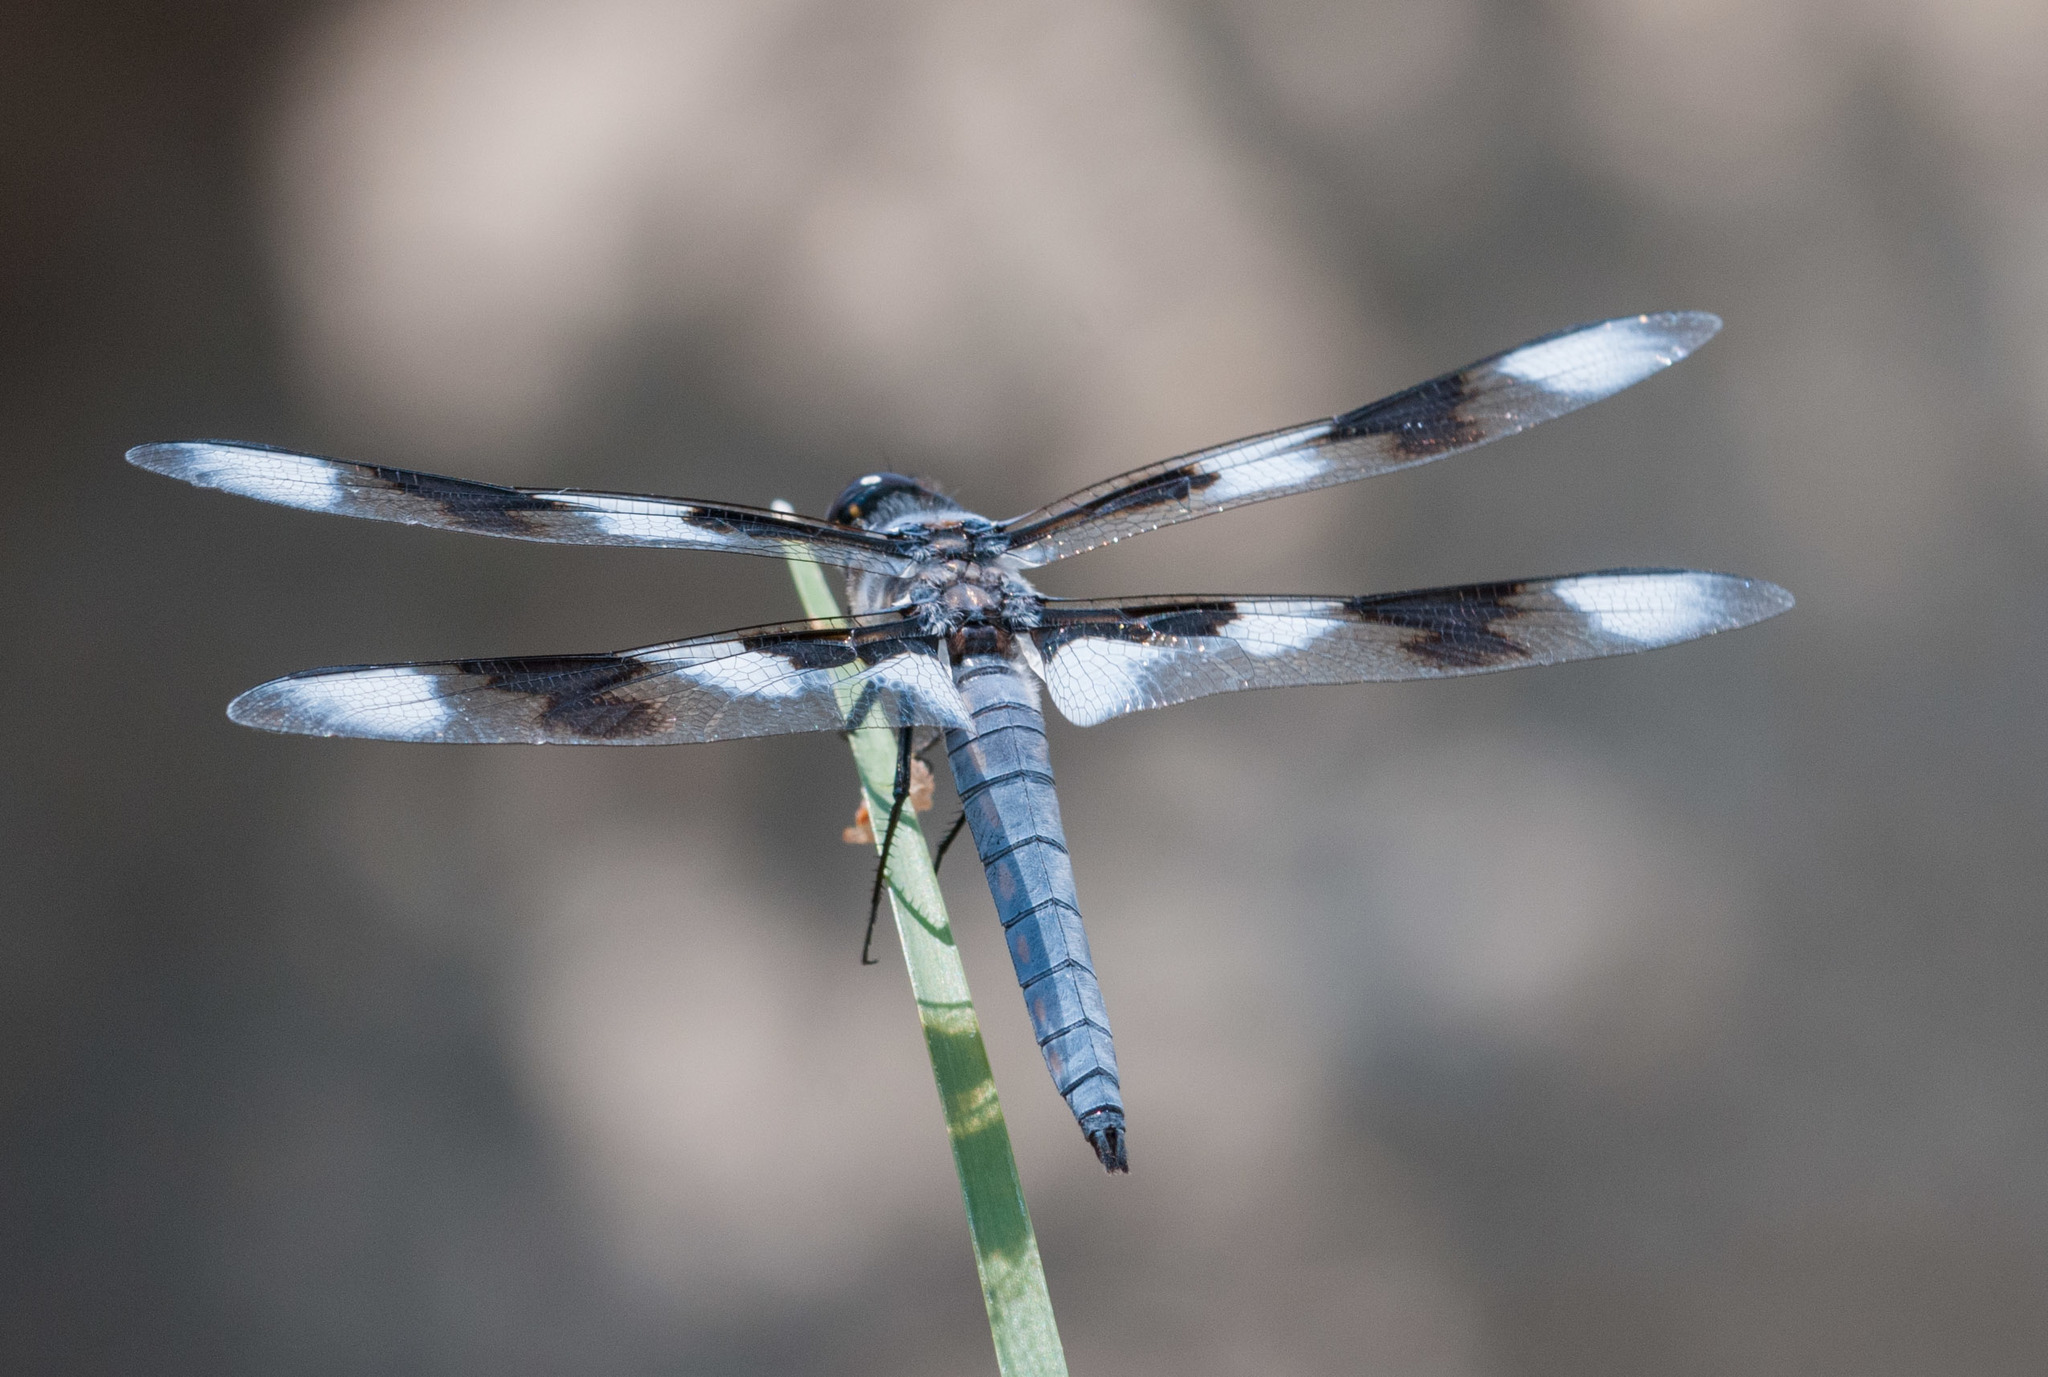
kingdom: Animalia
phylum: Arthropoda
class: Insecta
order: Odonata
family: Libellulidae
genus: Libellula
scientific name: Libellula forensis
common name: Eight-spotted skimmer
